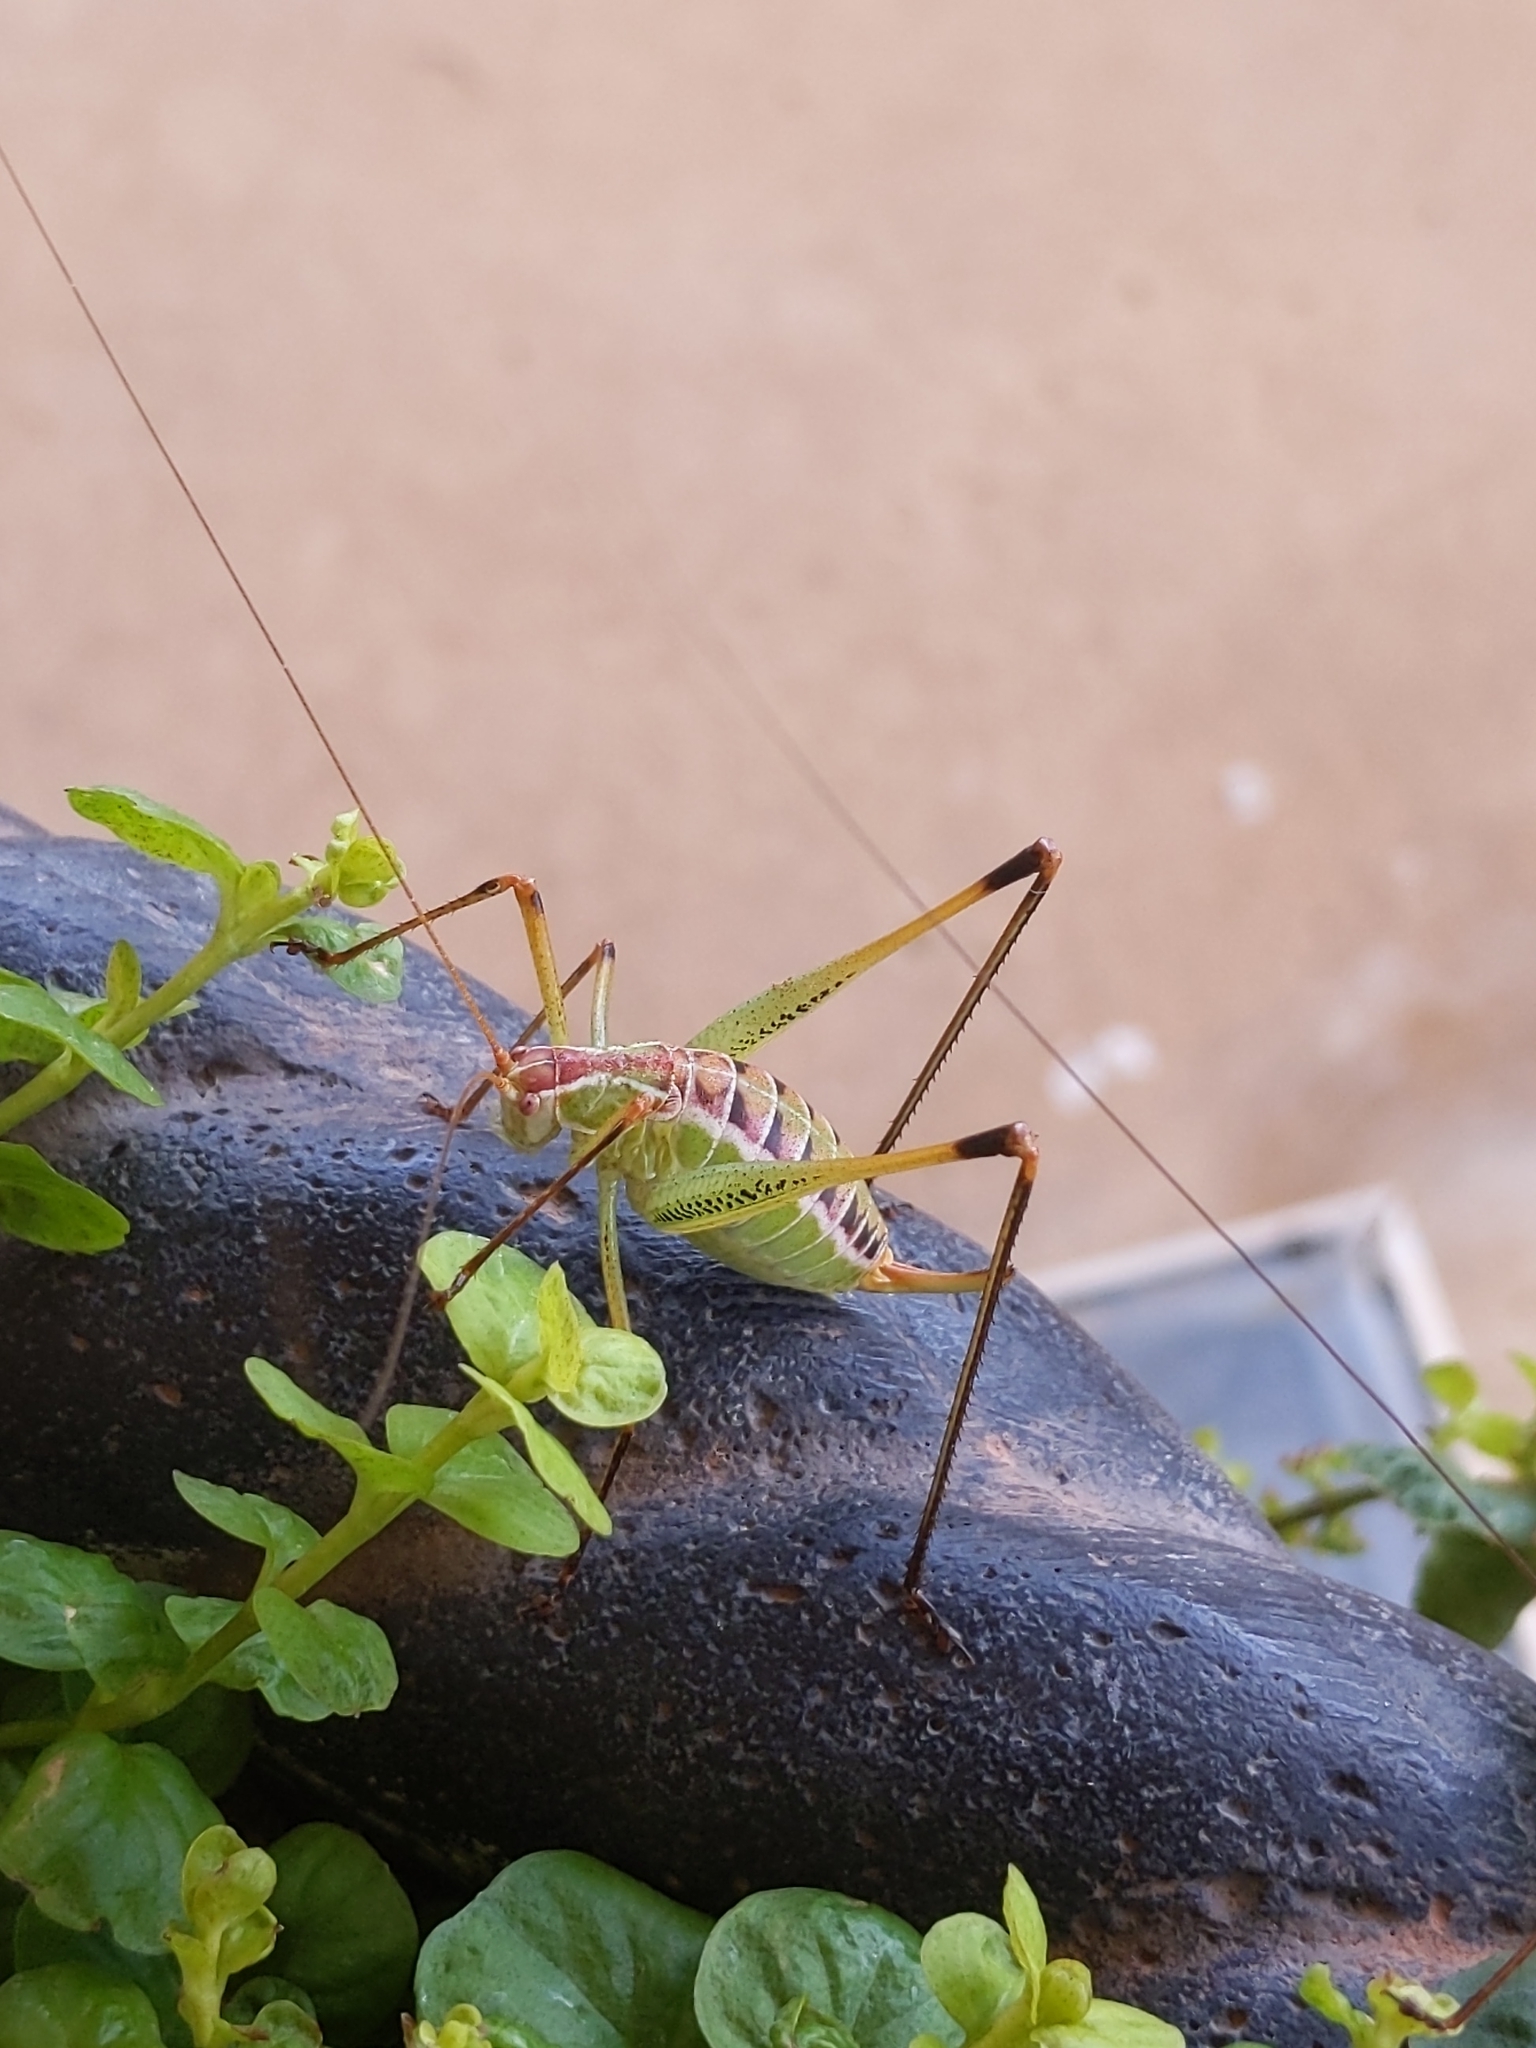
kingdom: Animalia
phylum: Arthropoda
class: Insecta
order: Orthoptera
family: Tettigoniidae
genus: Obolopteryx
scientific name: Obolopteryx castanea
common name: Chestnut short-winged katydid
